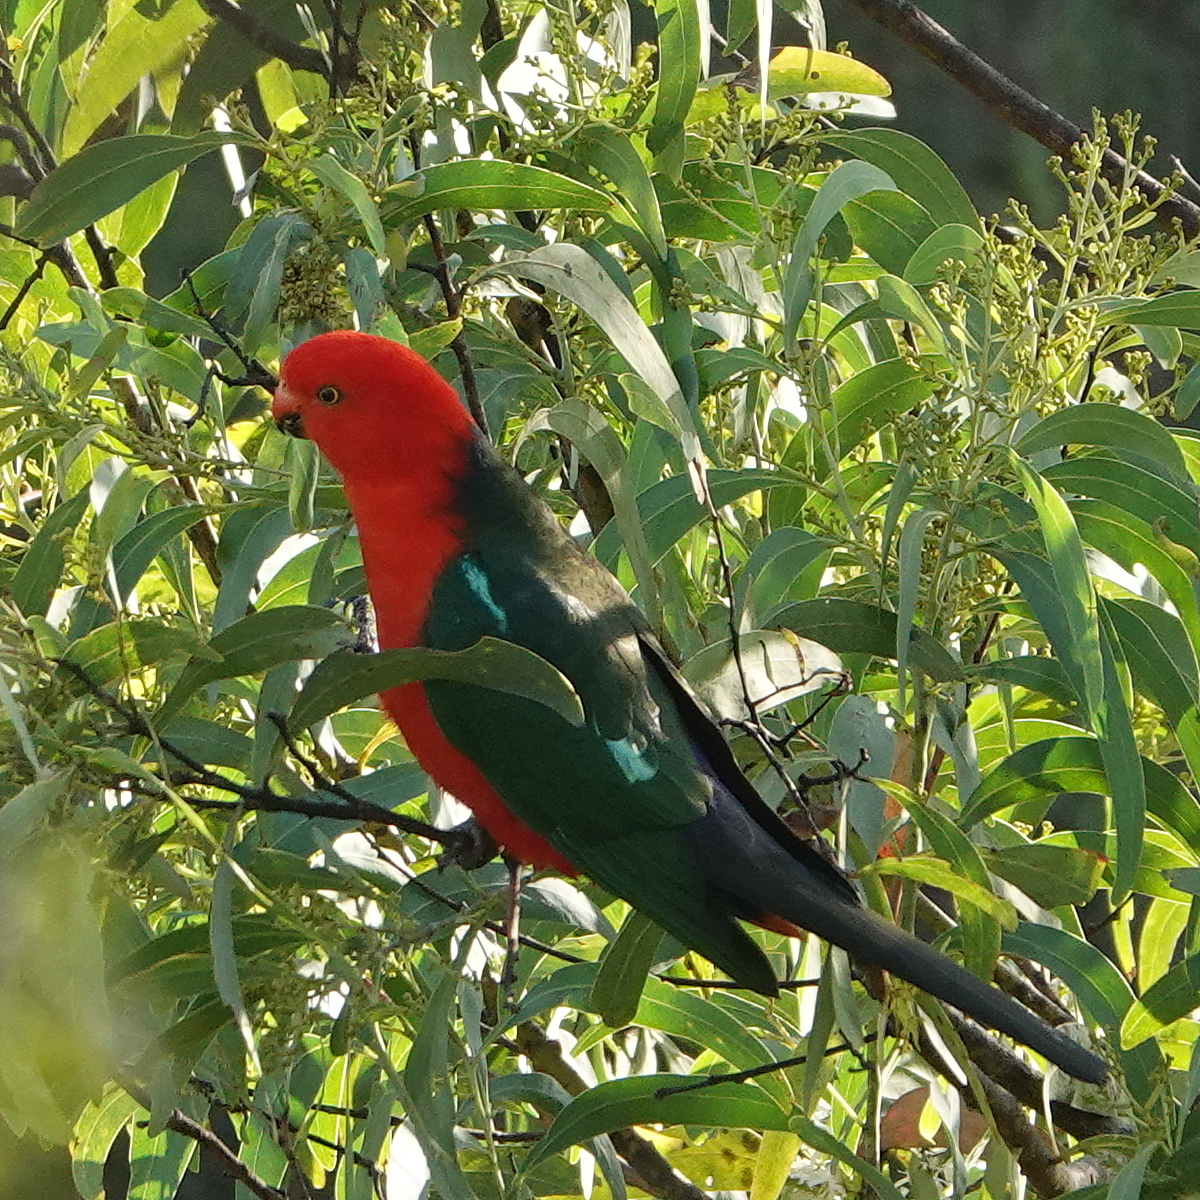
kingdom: Animalia
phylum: Chordata
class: Aves
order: Psittaciformes
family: Psittacidae
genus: Alisterus
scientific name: Alisterus scapularis
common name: Australian king parrot
